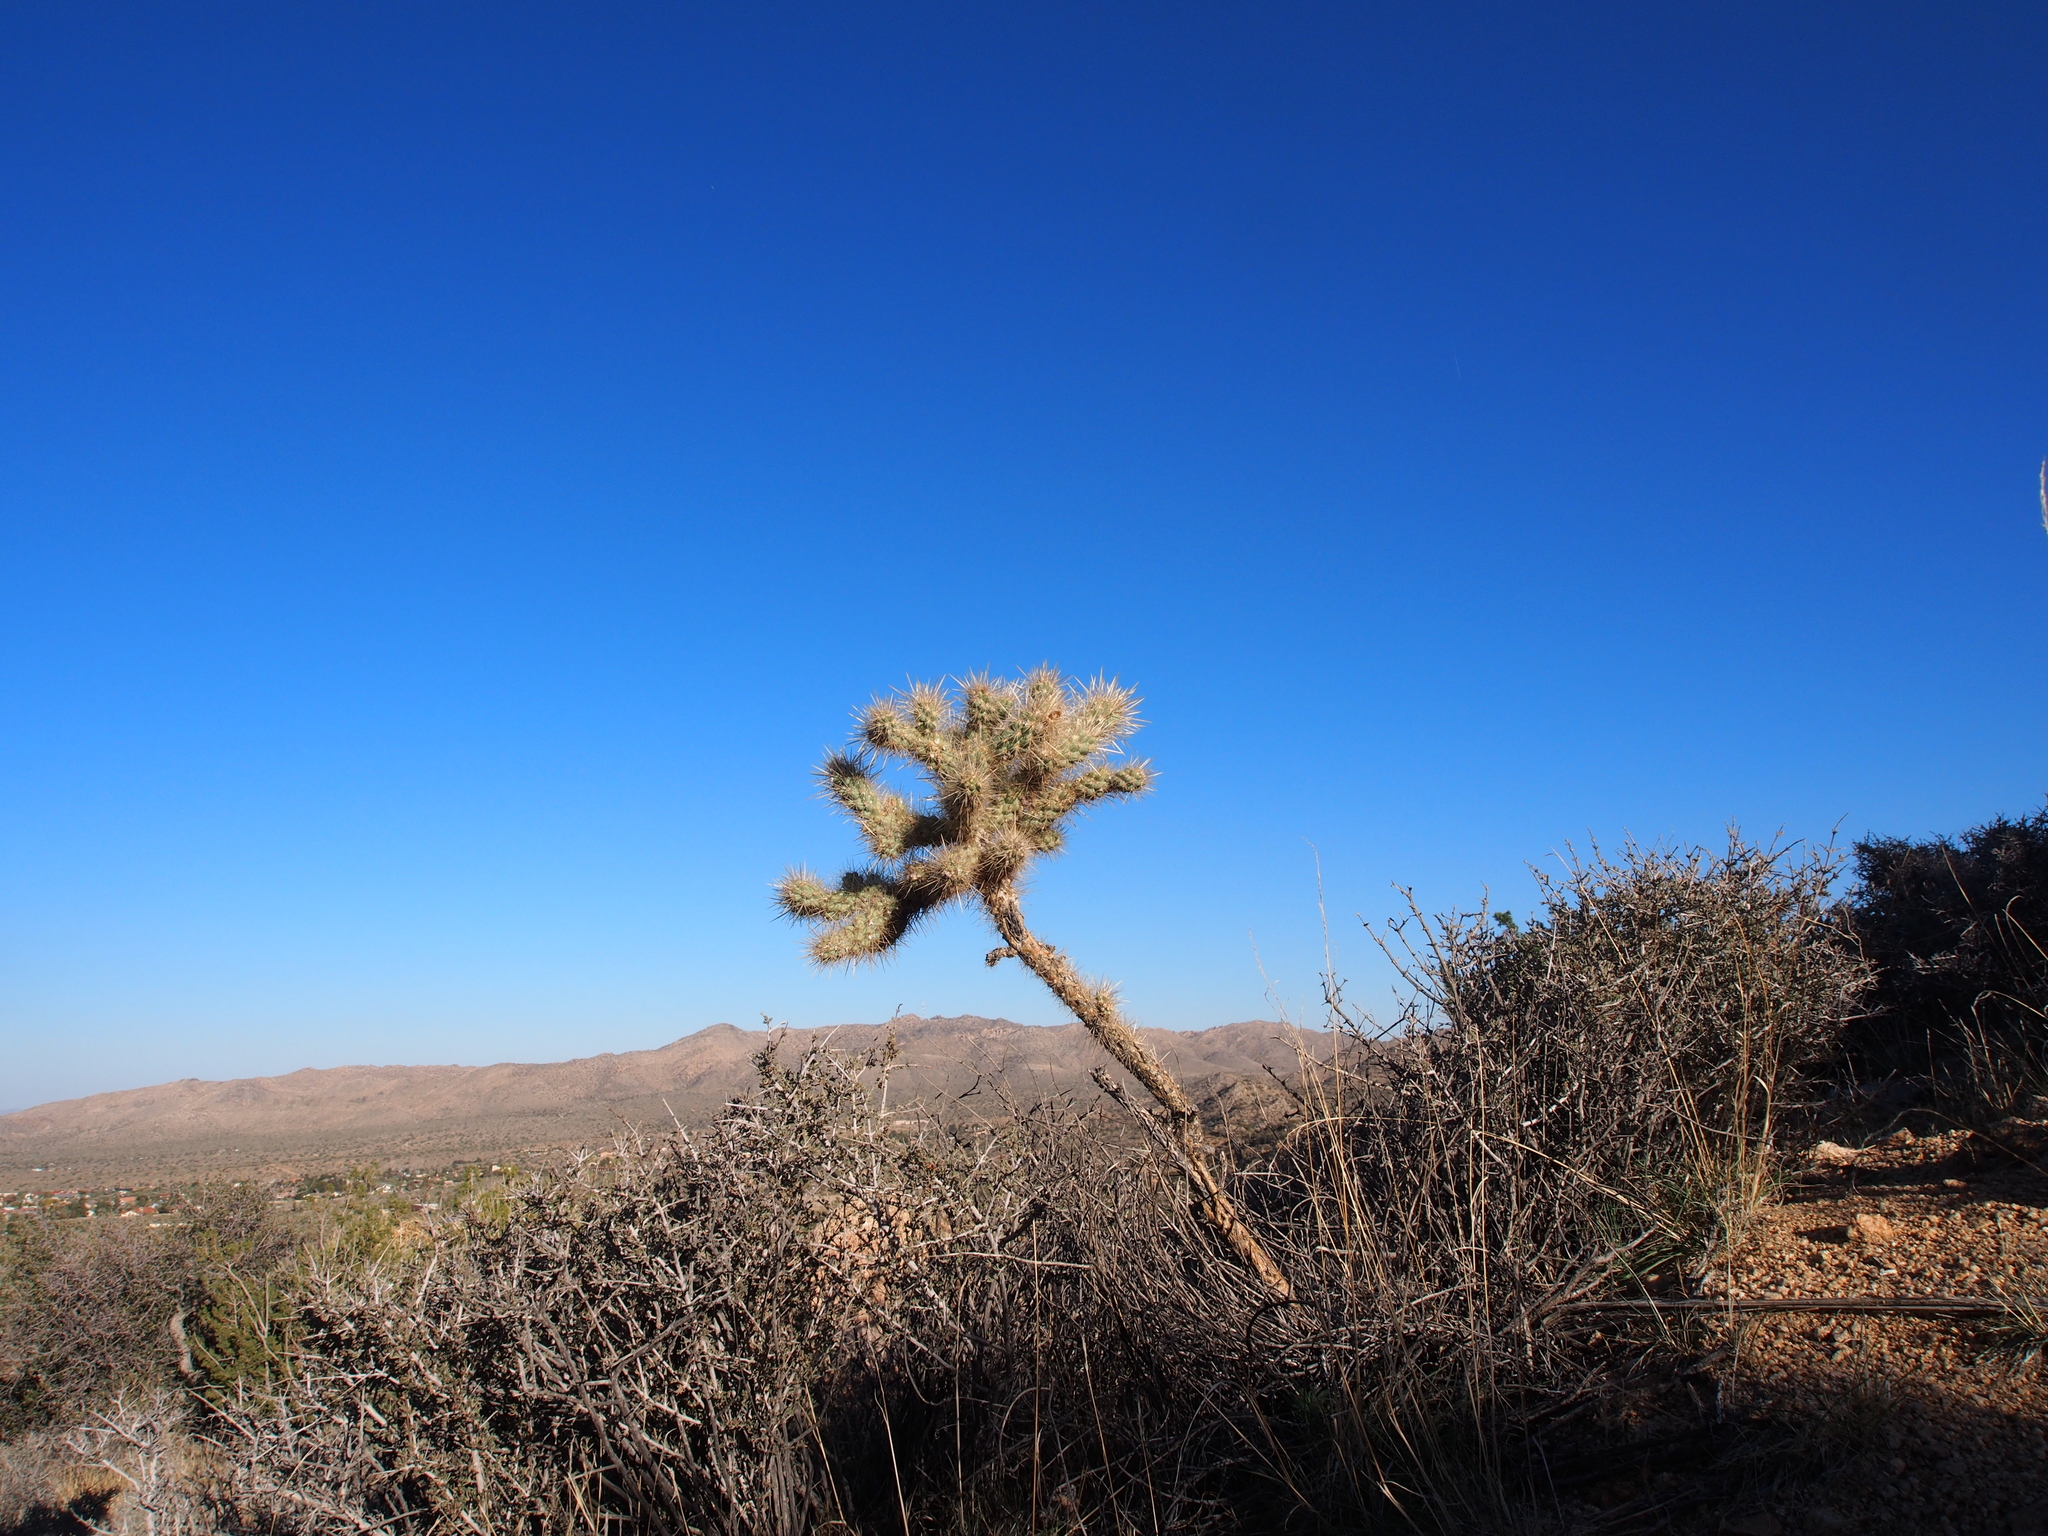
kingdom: Plantae
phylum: Tracheophyta
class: Magnoliopsida
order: Caryophyllales
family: Cactaceae
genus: Cylindropuntia
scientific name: Cylindropuntia echinocarpa
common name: Ground cholla
